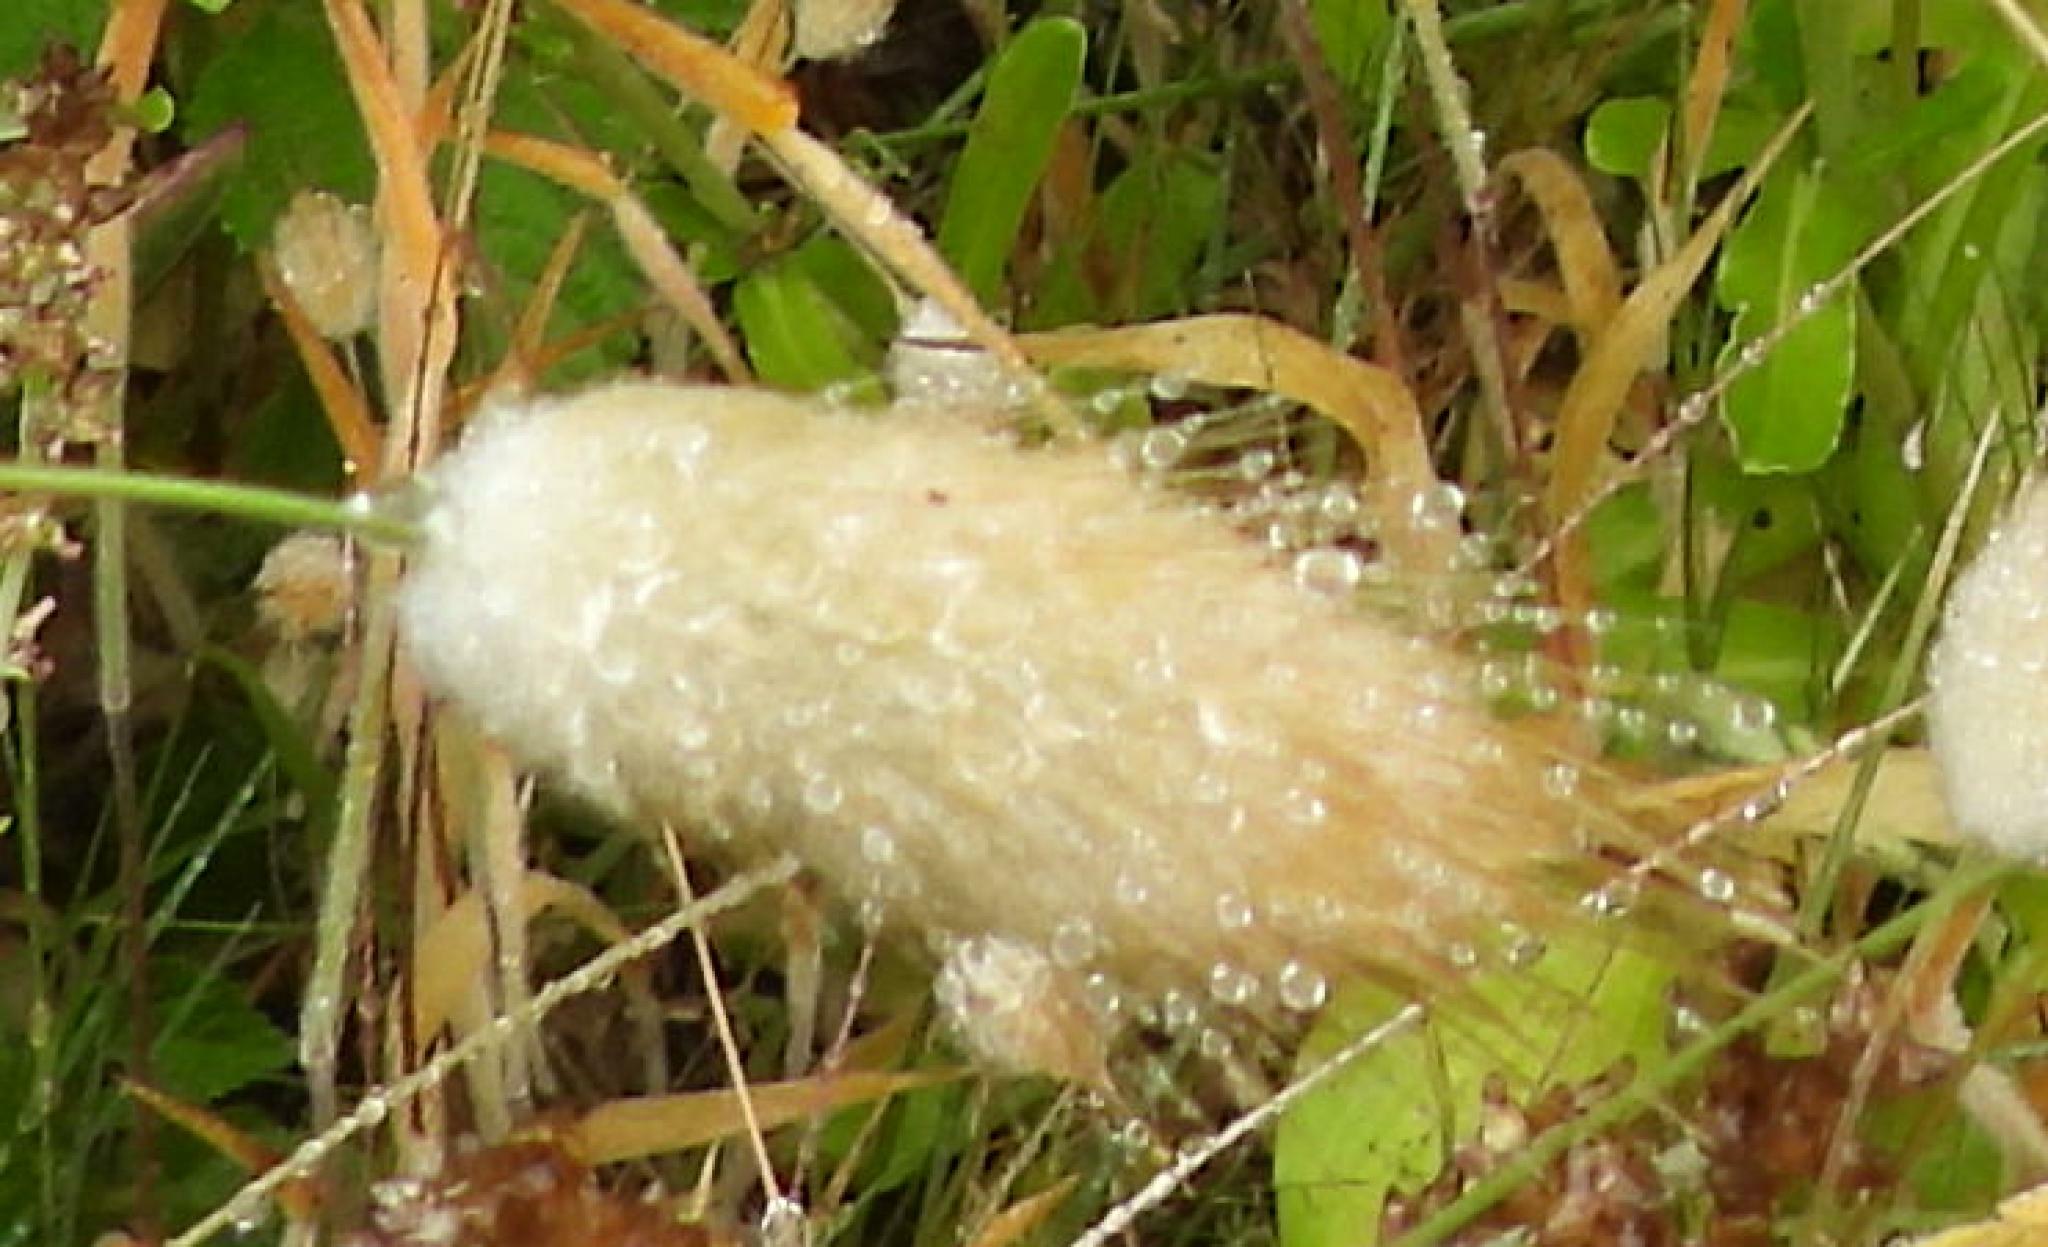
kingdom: Plantae
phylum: Tracheophyta
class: Liliopsida
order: Poales
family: Poaceae
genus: Lagurus
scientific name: Lagurus ovatus
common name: Hare's-tail
